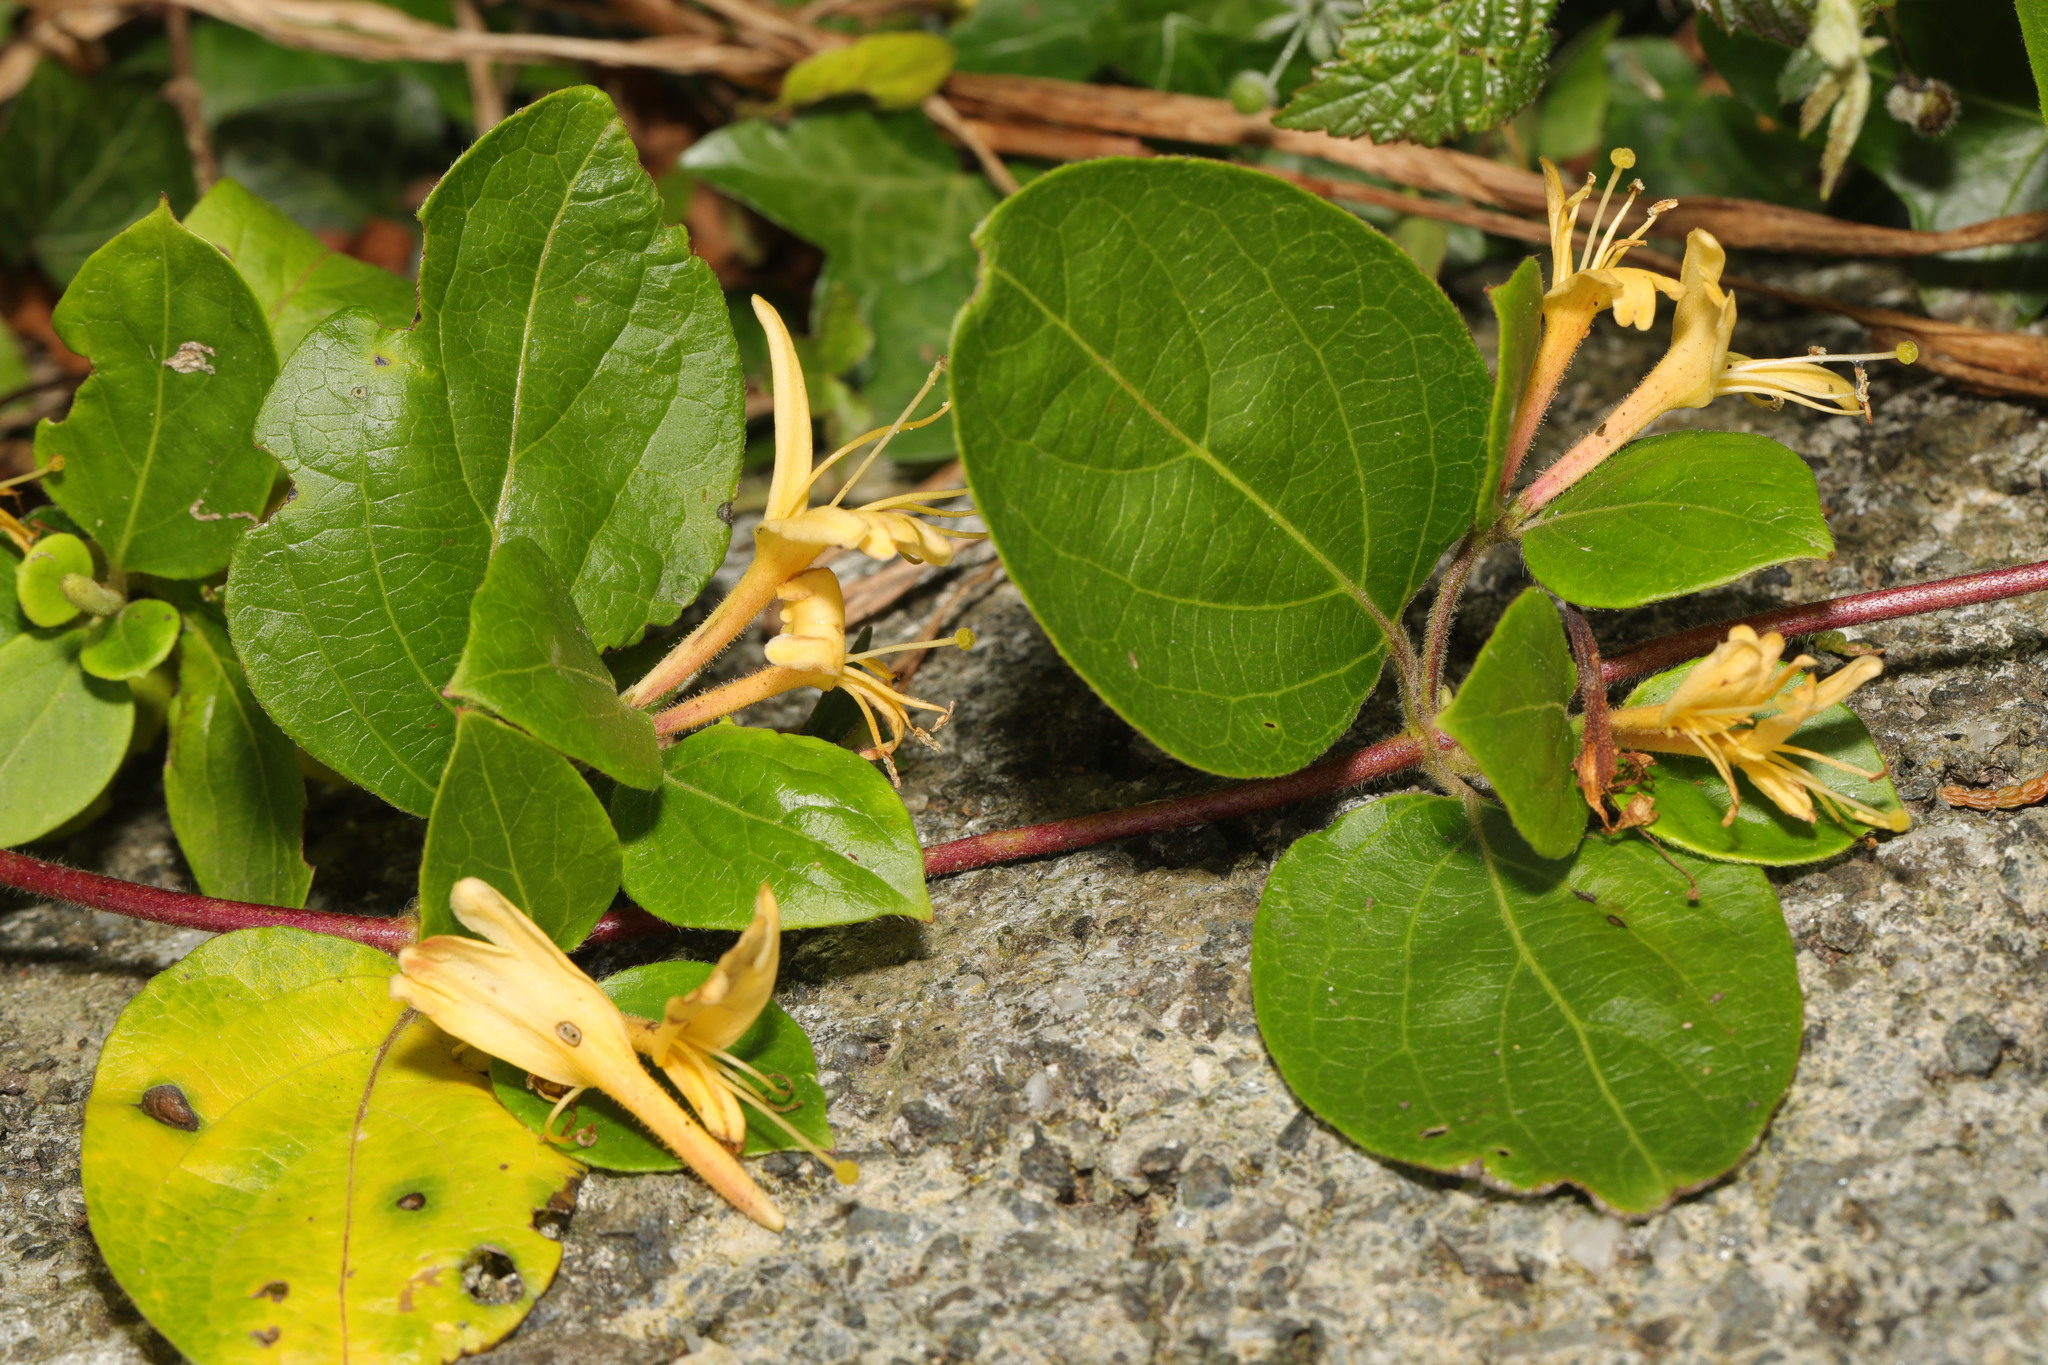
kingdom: Plantae
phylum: Tracheophyta
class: Magnoliopsida
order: Dipsacales
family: Caprifoliaceae
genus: Lonicera
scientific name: Lonicera japonica
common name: Japanese honeysuckle
